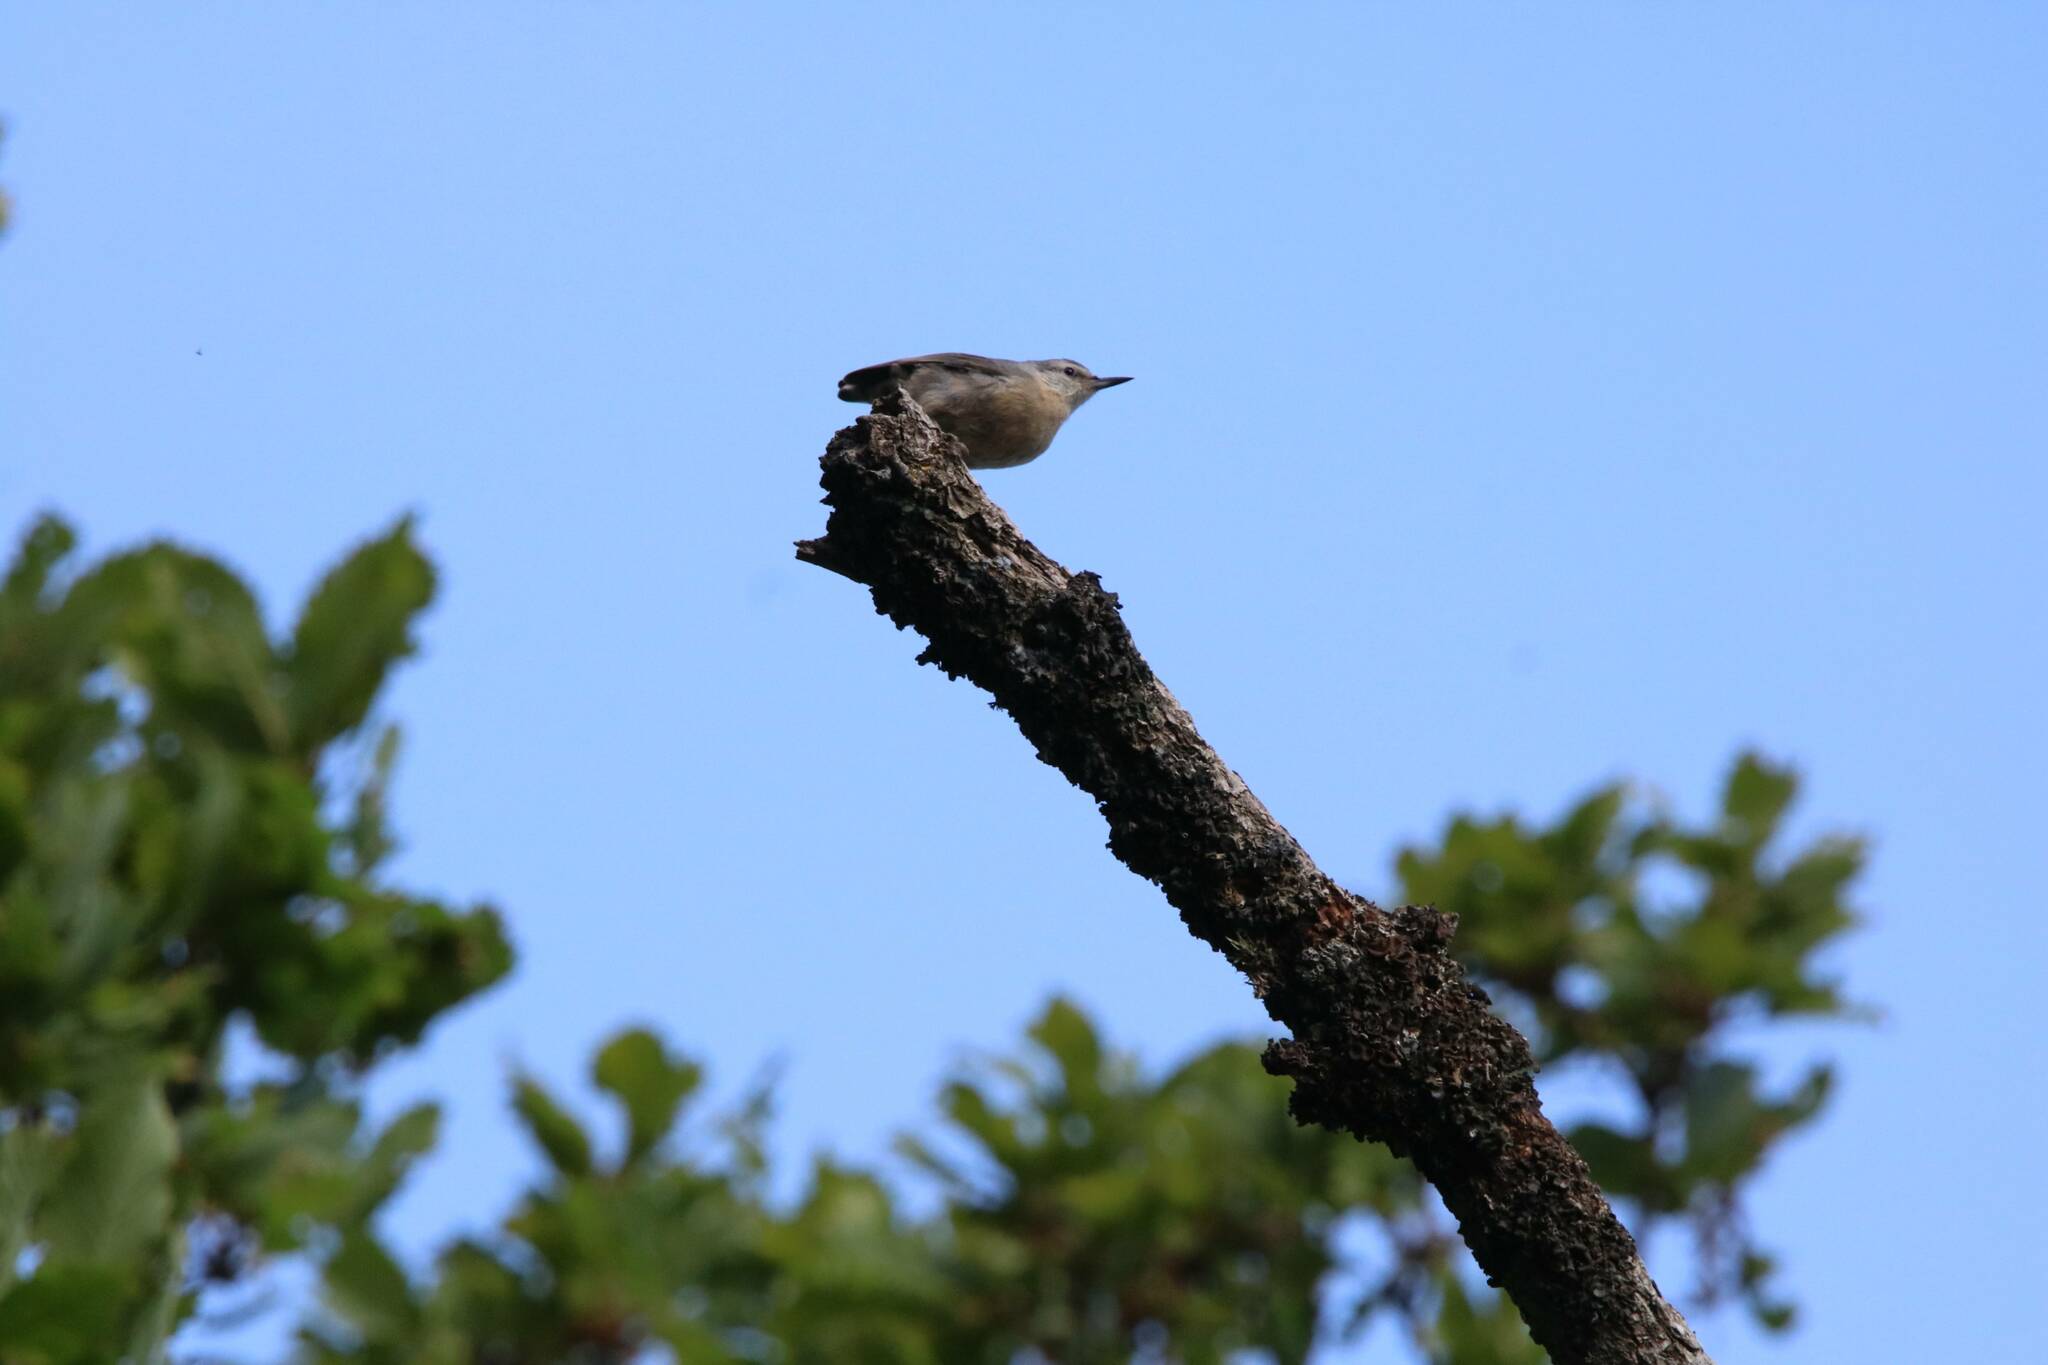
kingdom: Animalia
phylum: Chordata
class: Aves
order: Passeriformes
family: Sittidae
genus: Sitta
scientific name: Sitta ledanti
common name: Algerian nuthatch
